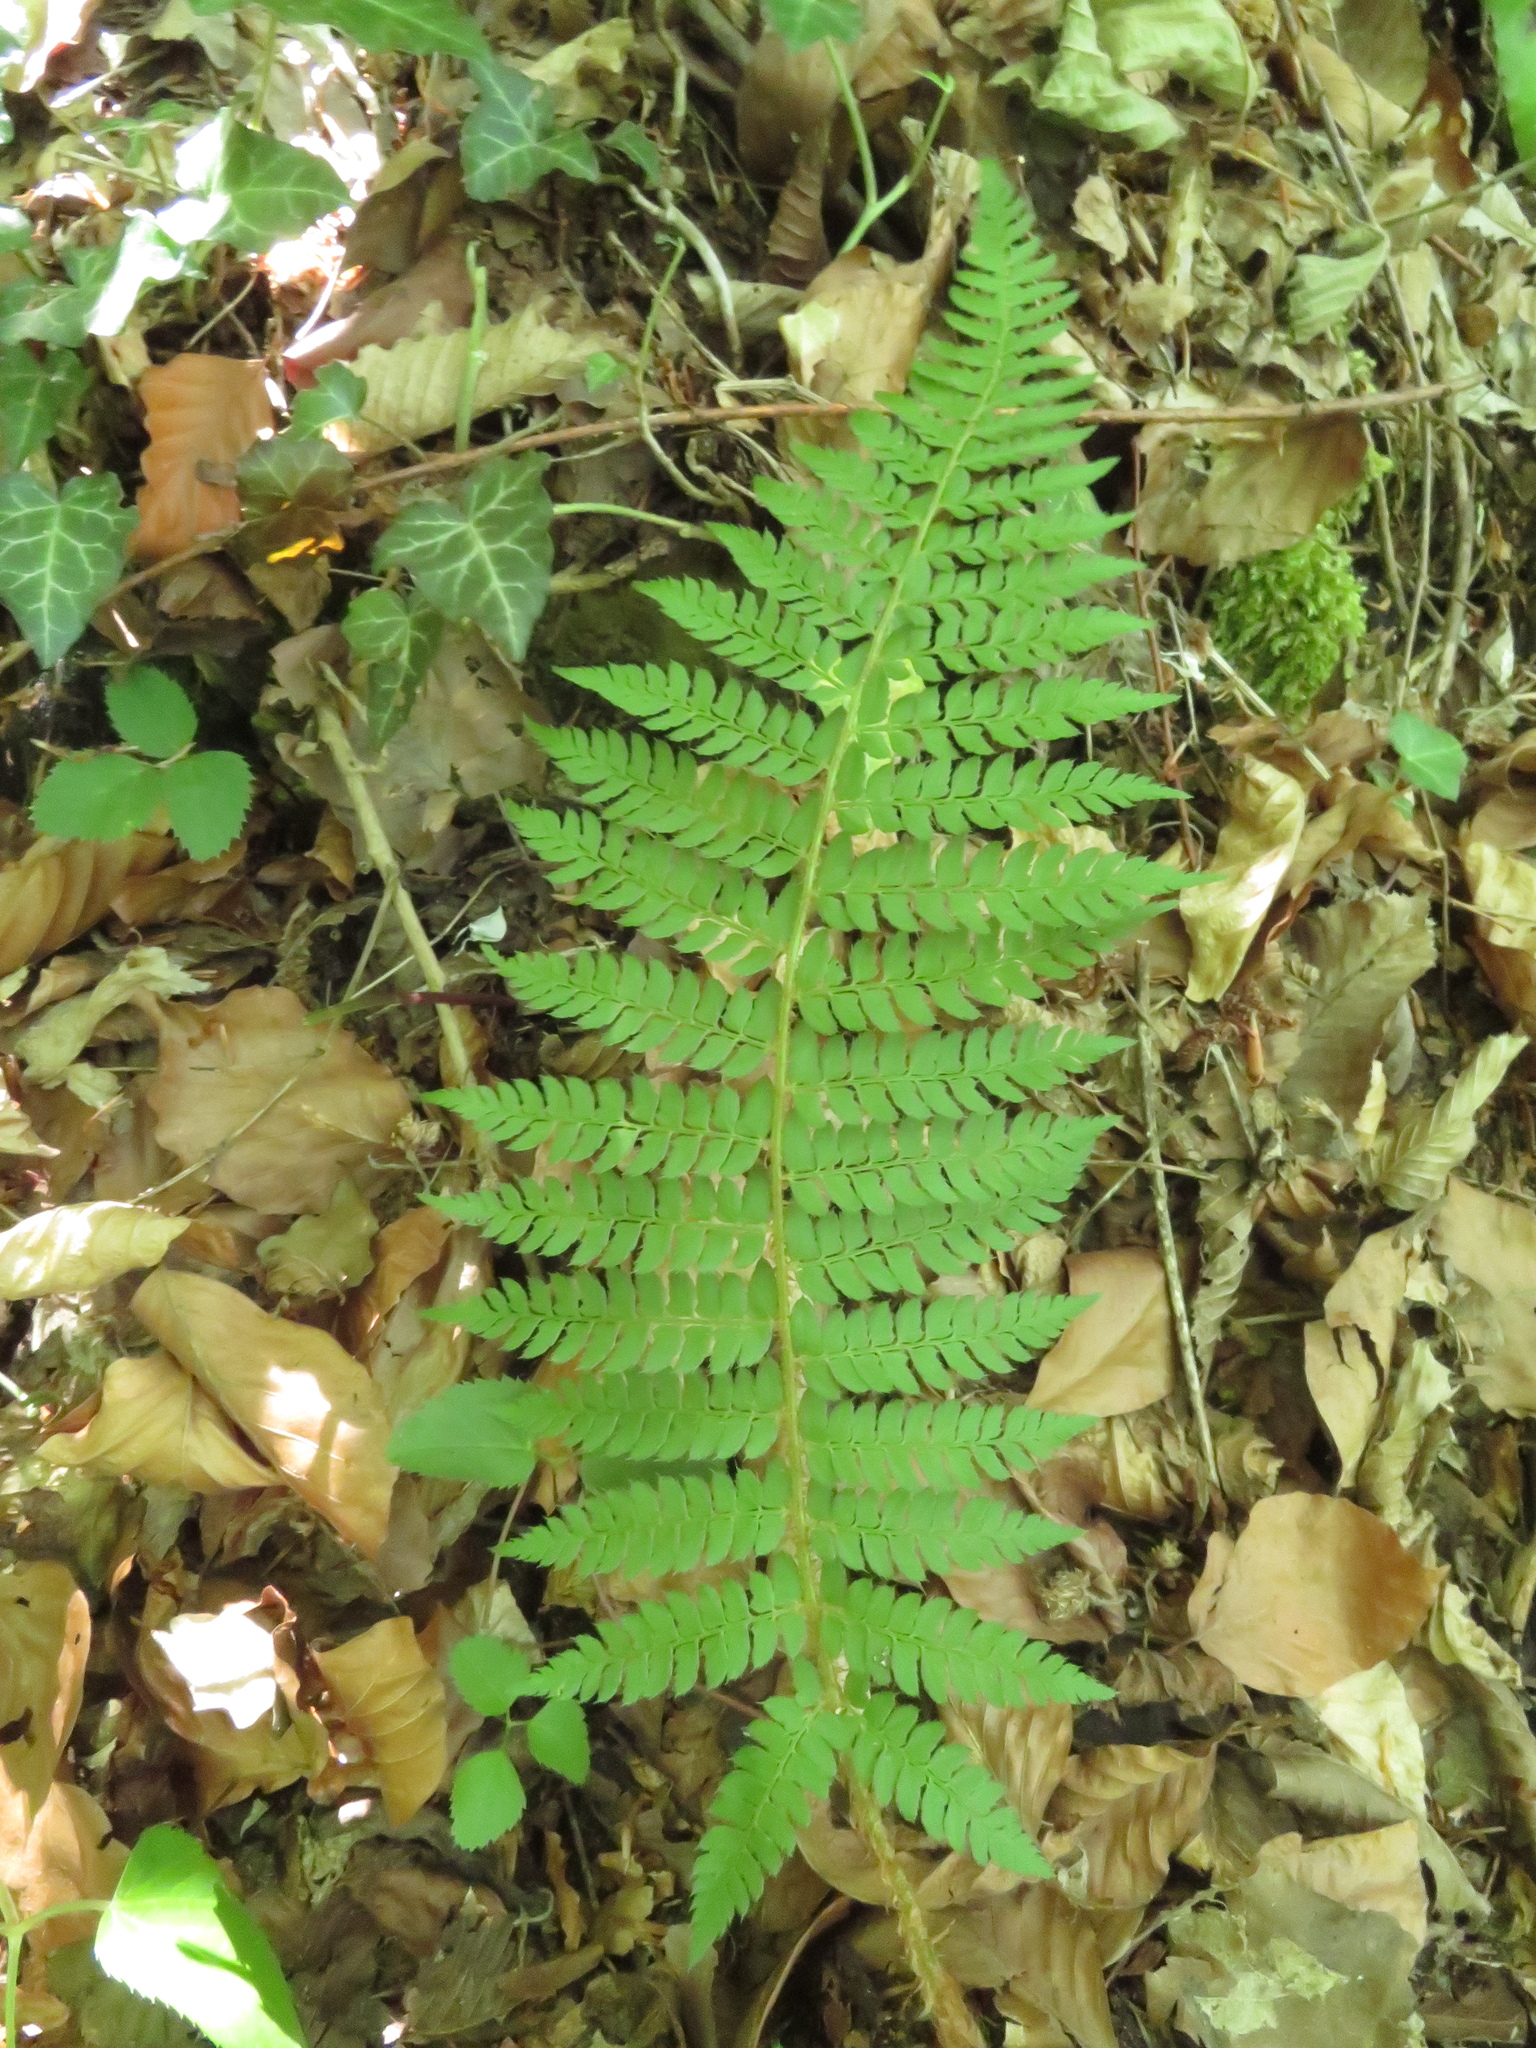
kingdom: Plantae
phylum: Tracheophyta
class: Polypodiopsida
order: Polypodiales
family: Dryopteridaceae
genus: Polystichum
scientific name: Polystichum setiferum
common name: Soft shield-fern
